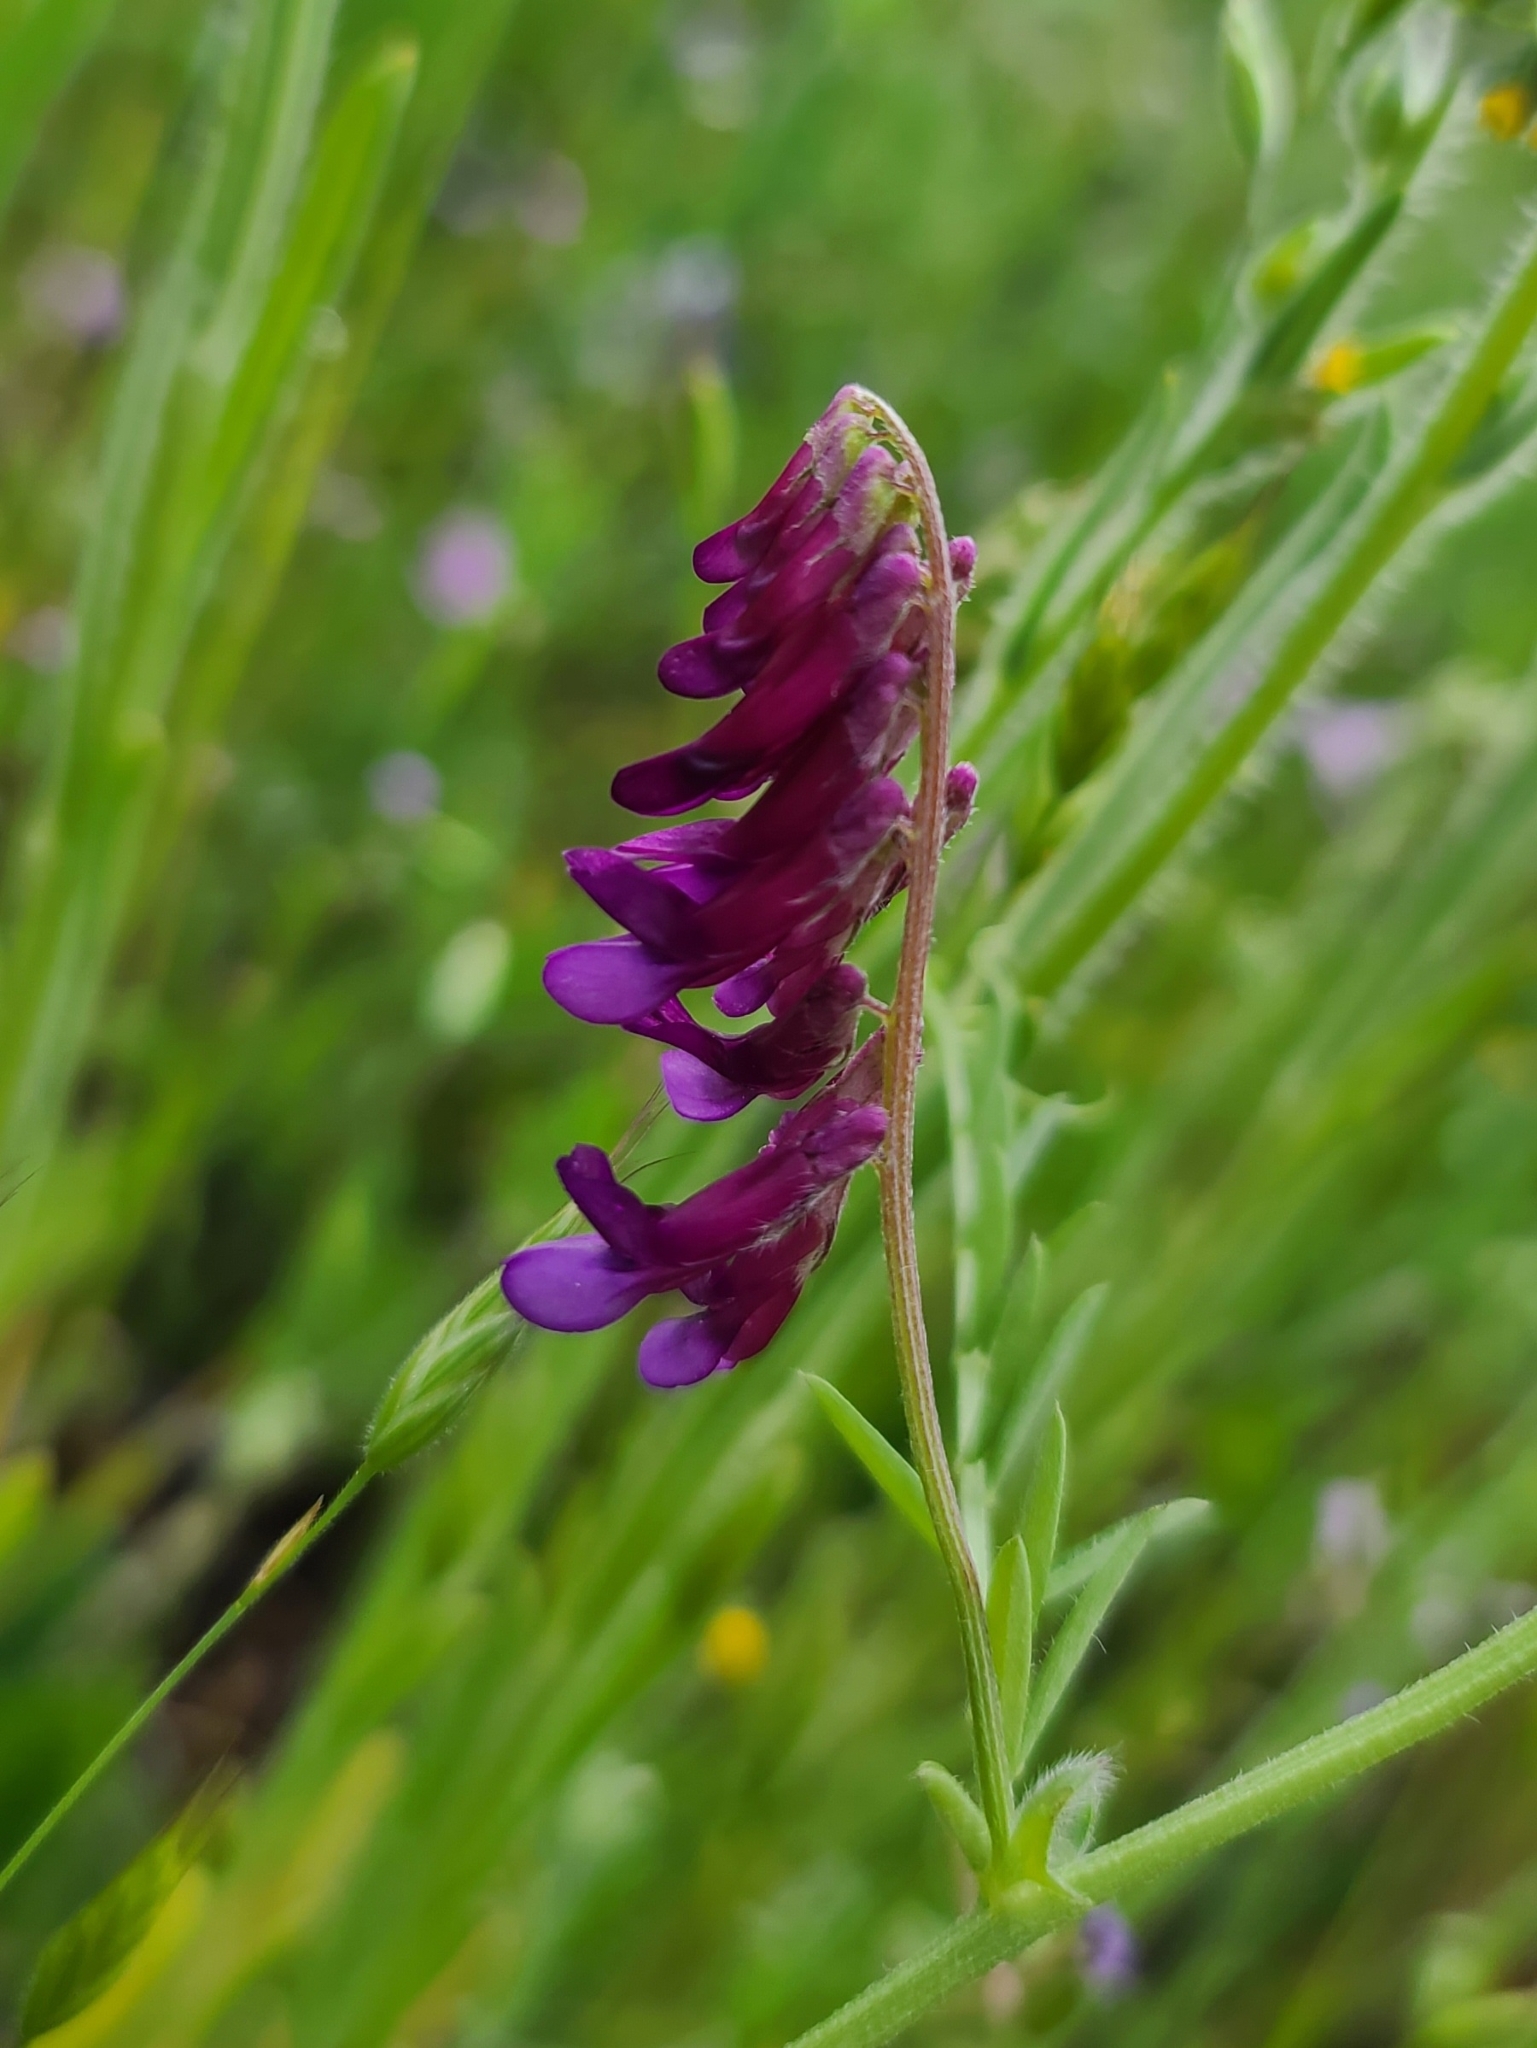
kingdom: Plantae
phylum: Tracheophyta
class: Magnoliopsida
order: Fabales
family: Fabaceae
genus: Vicia
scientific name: Vicia villosa
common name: Fodder vetch
